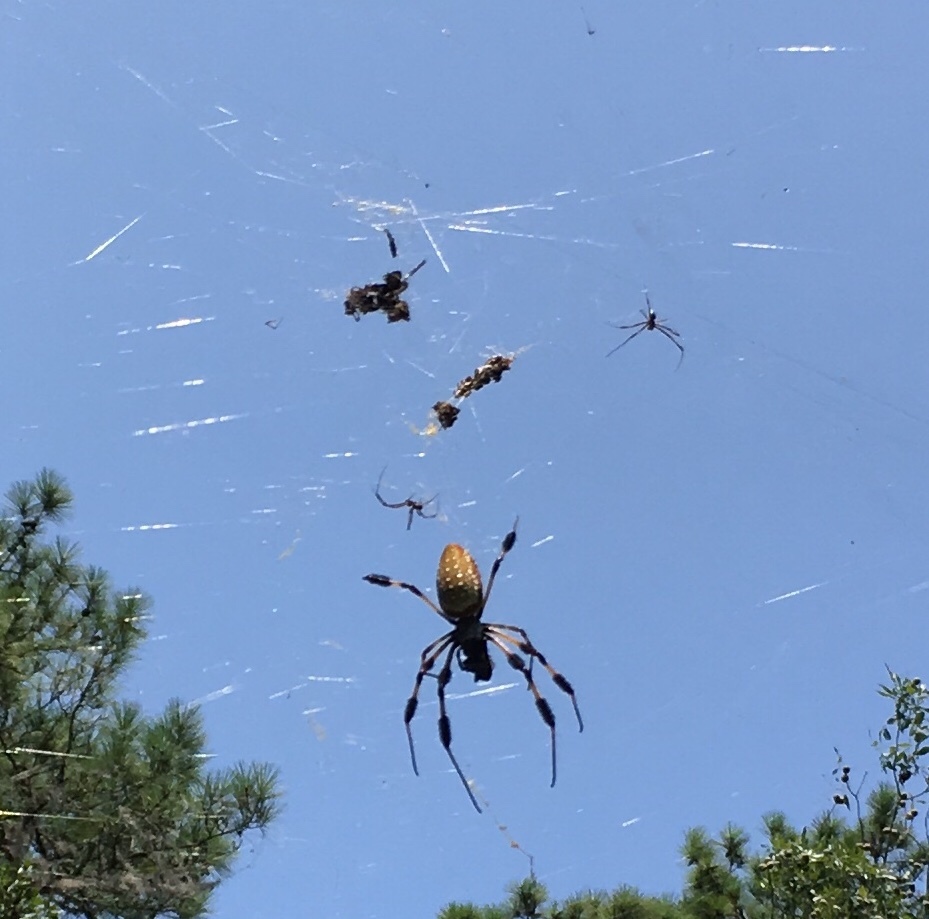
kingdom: Animalia
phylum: Arthropoda
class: Arachnida
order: Araneae
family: Araneidae
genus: Trichonephila
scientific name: Trichonephila clavipes
